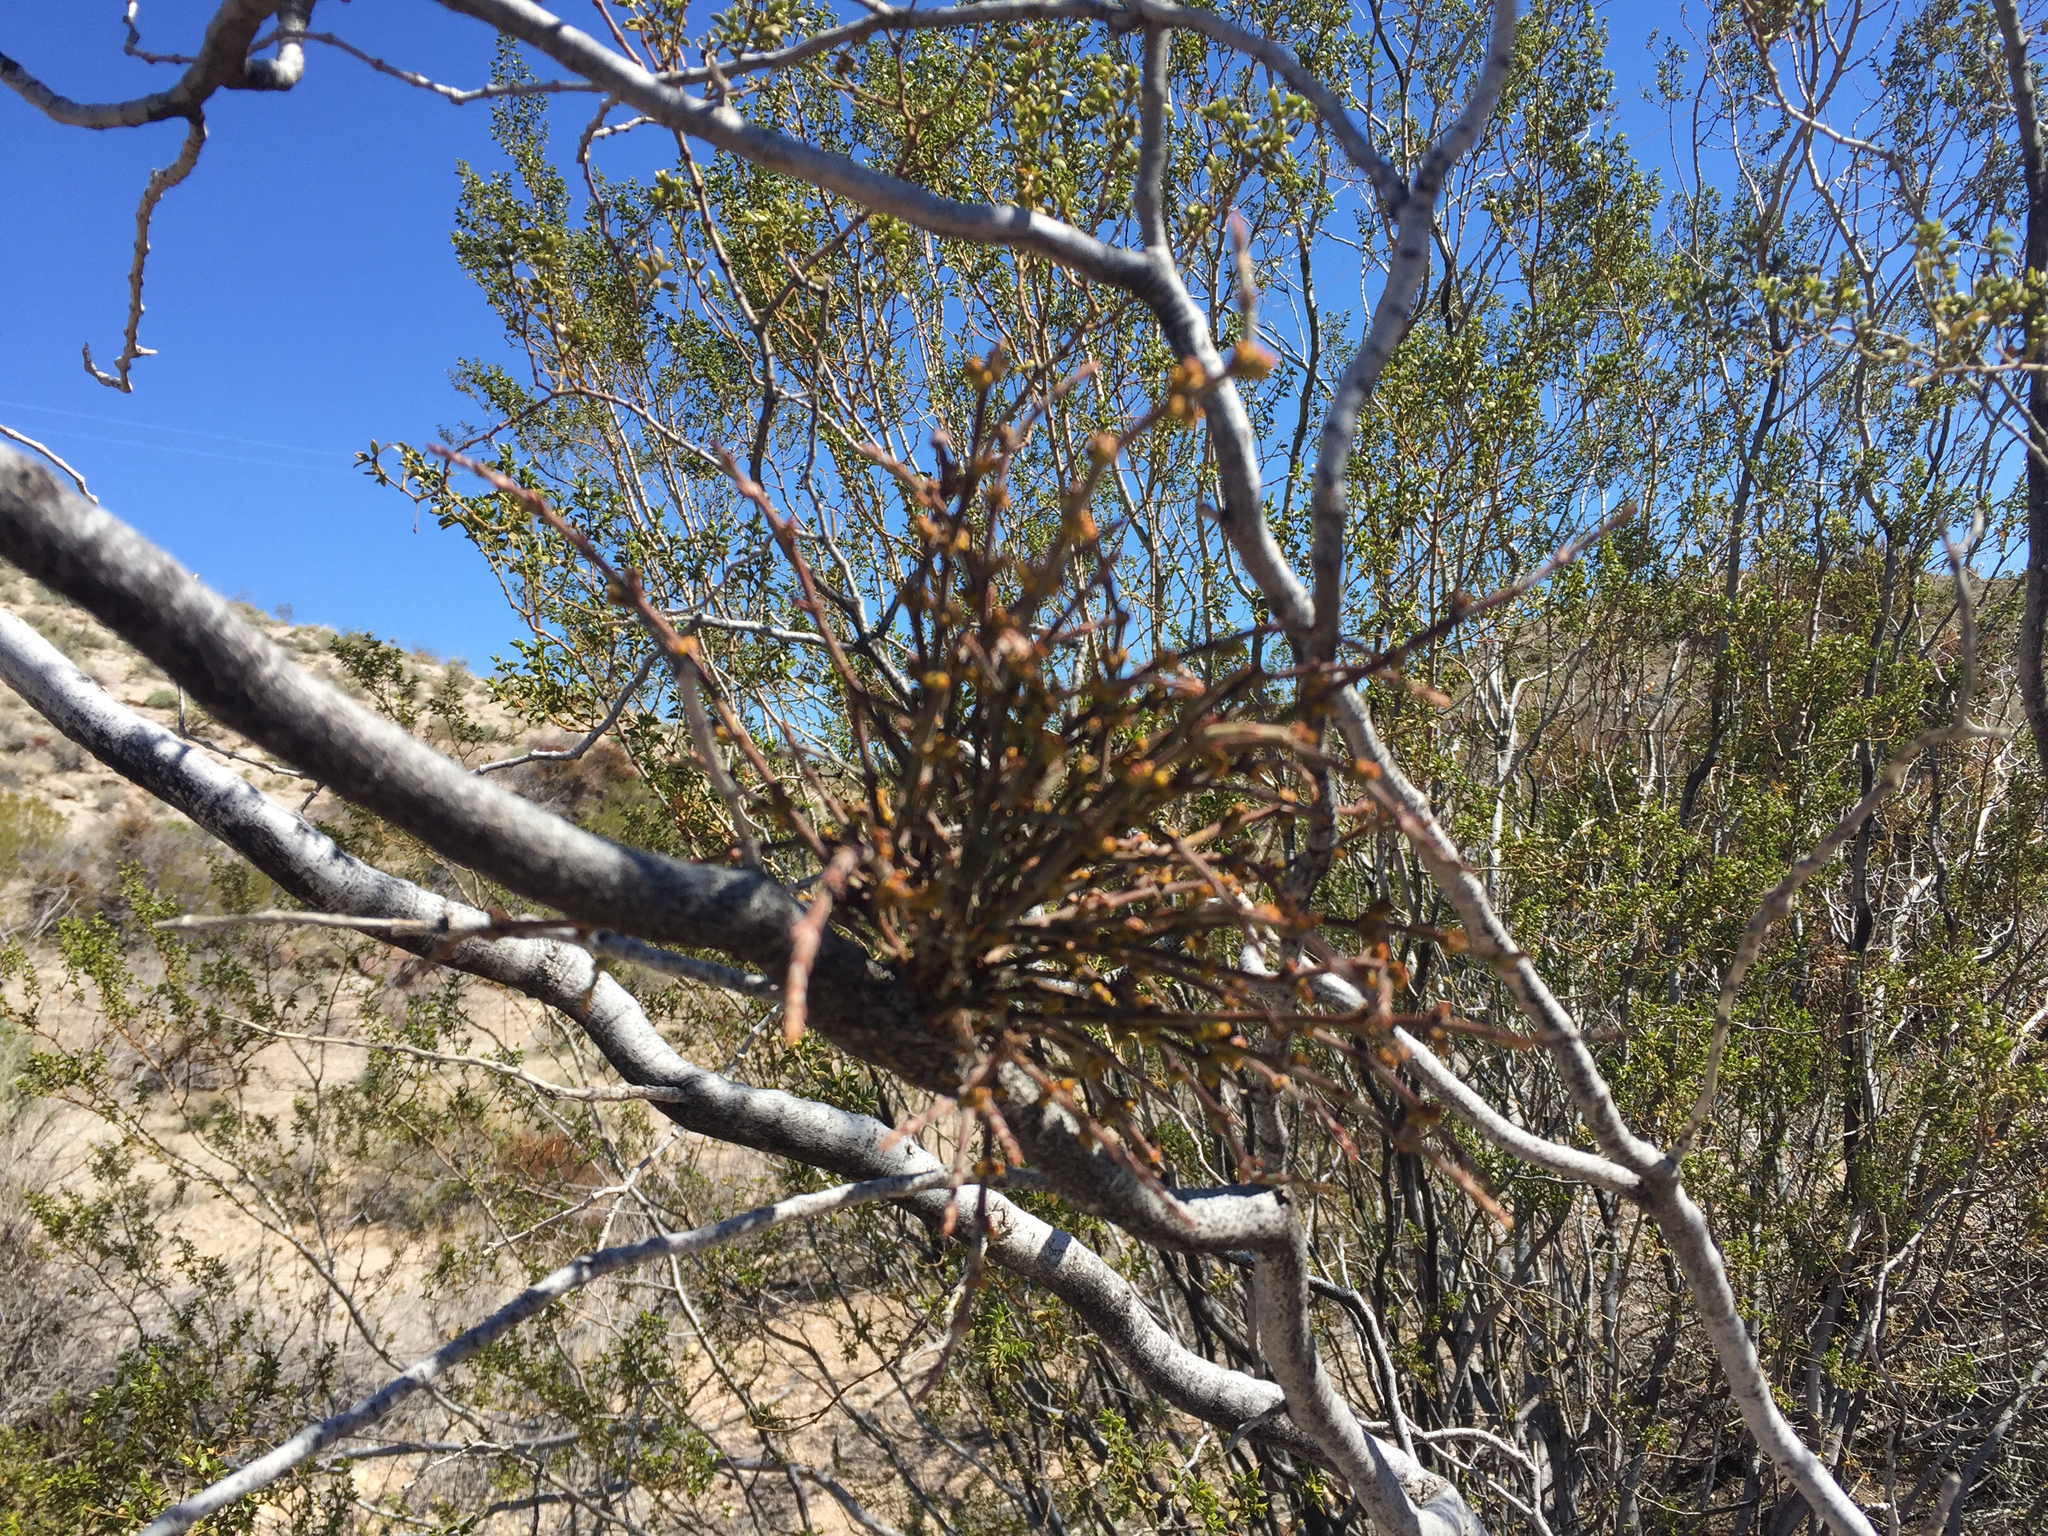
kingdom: Plantae
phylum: Tracheophyta
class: Magnoliopsida
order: Santalales
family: Viscaceae
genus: Phoradendron
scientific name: Phoradendron californicum
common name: Acacia mistletoe
